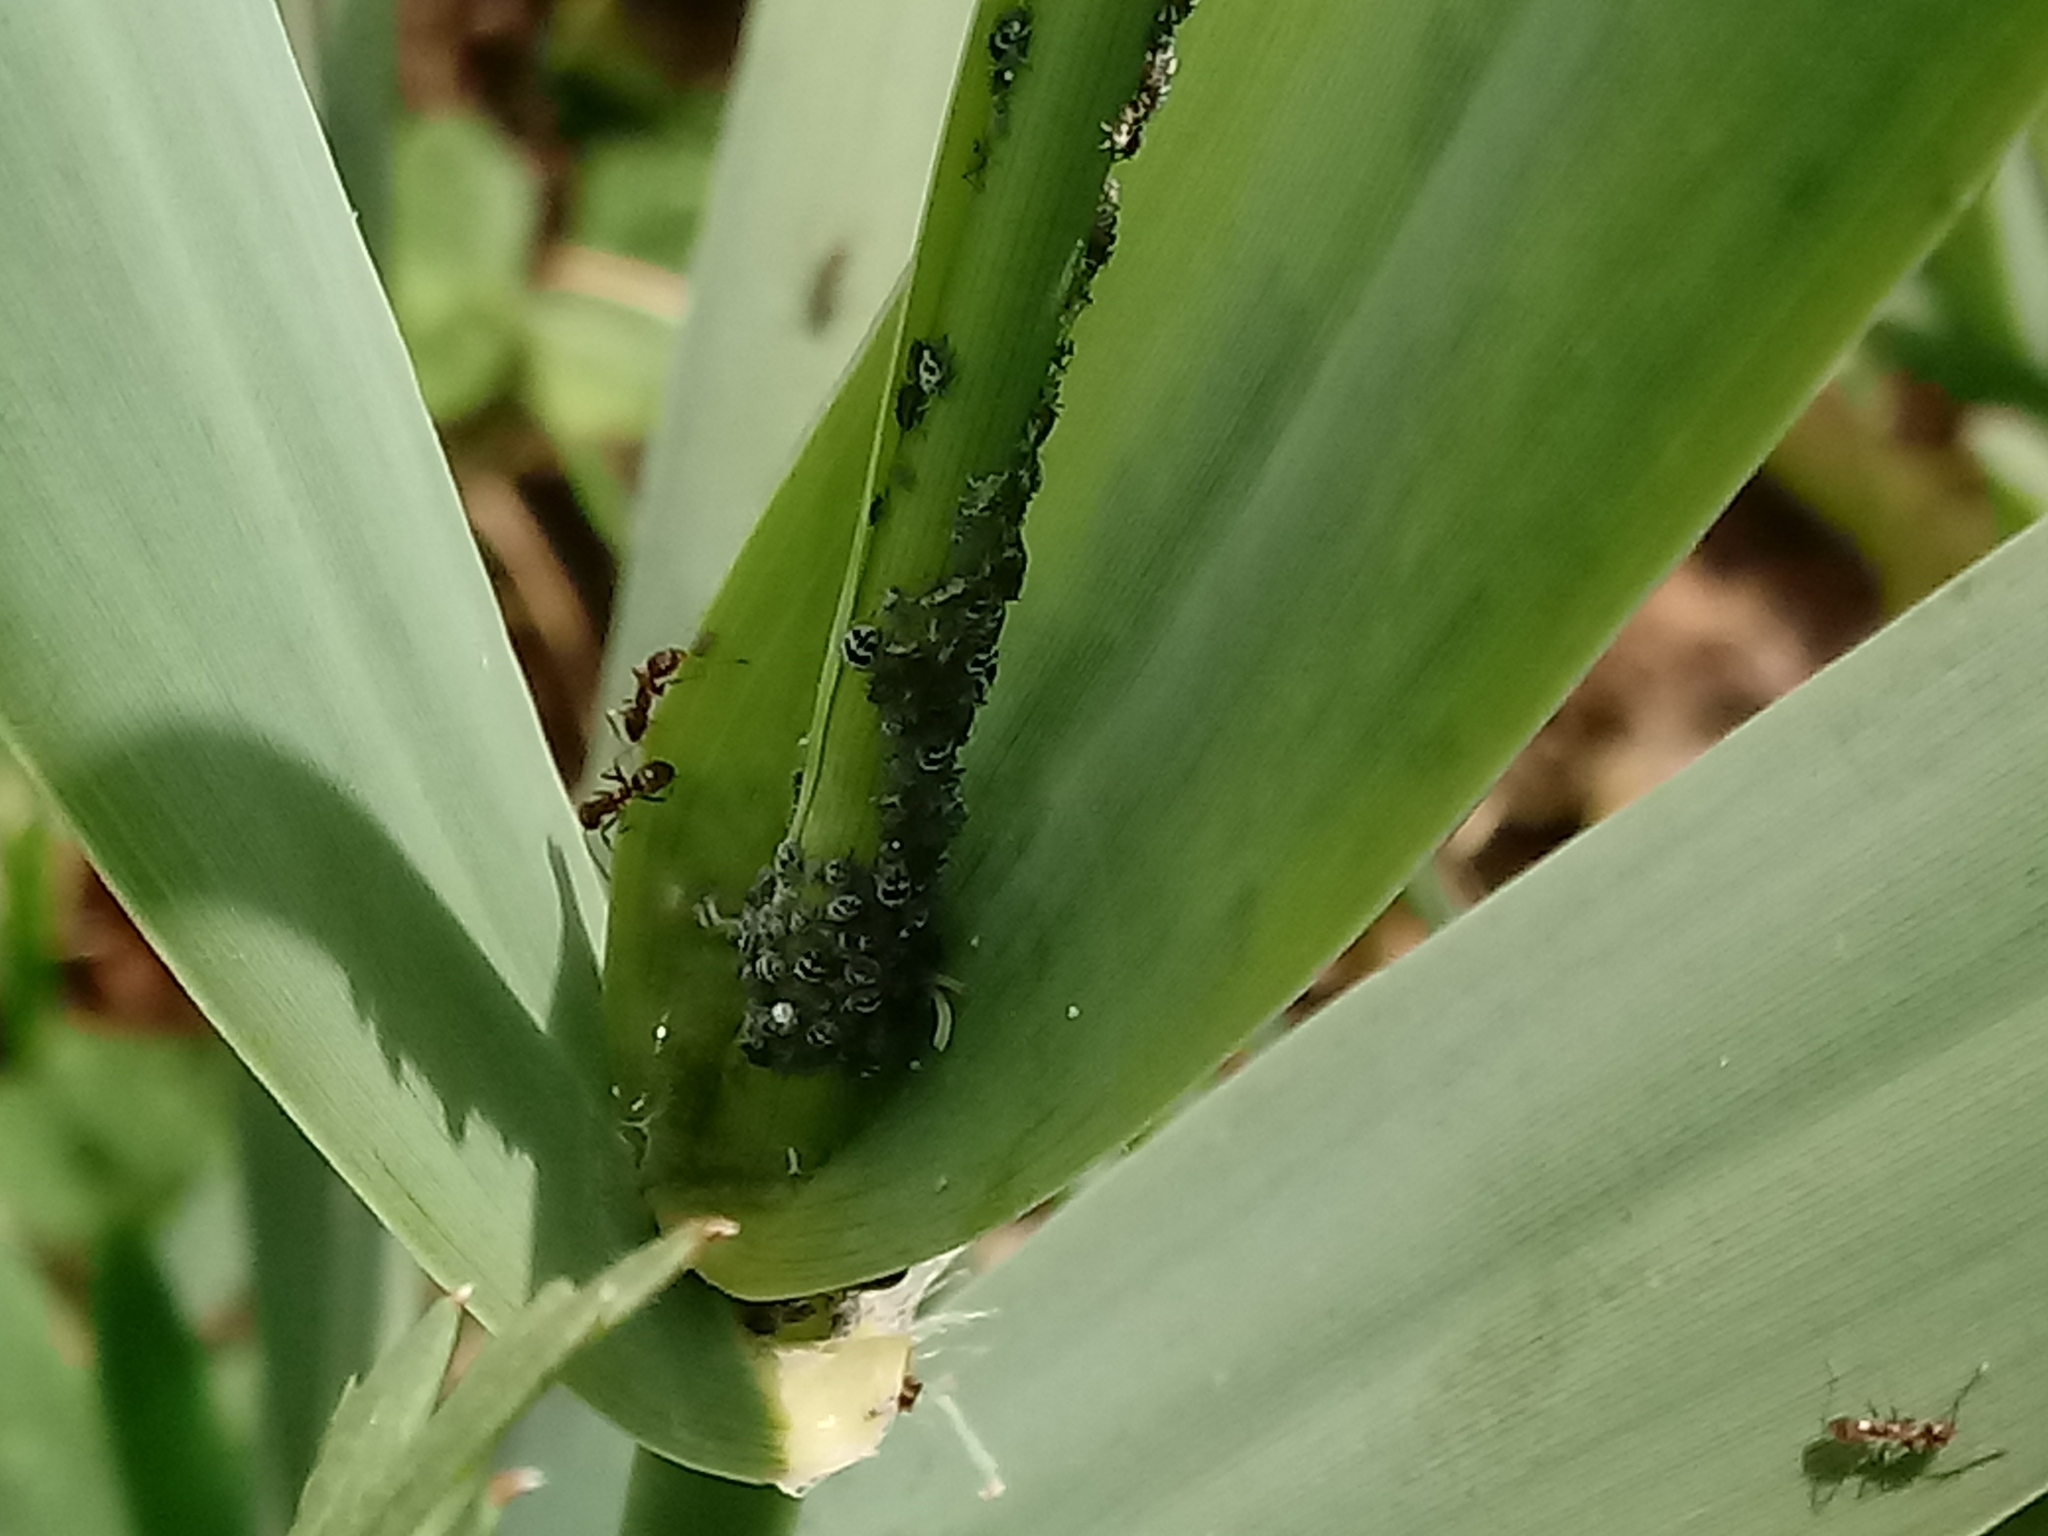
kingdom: Animalia
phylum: Arthropoda
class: Insecta
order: Hymenoptera
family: Formicidae
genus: Linepithema
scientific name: Linepithema humile
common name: Argentine ant
